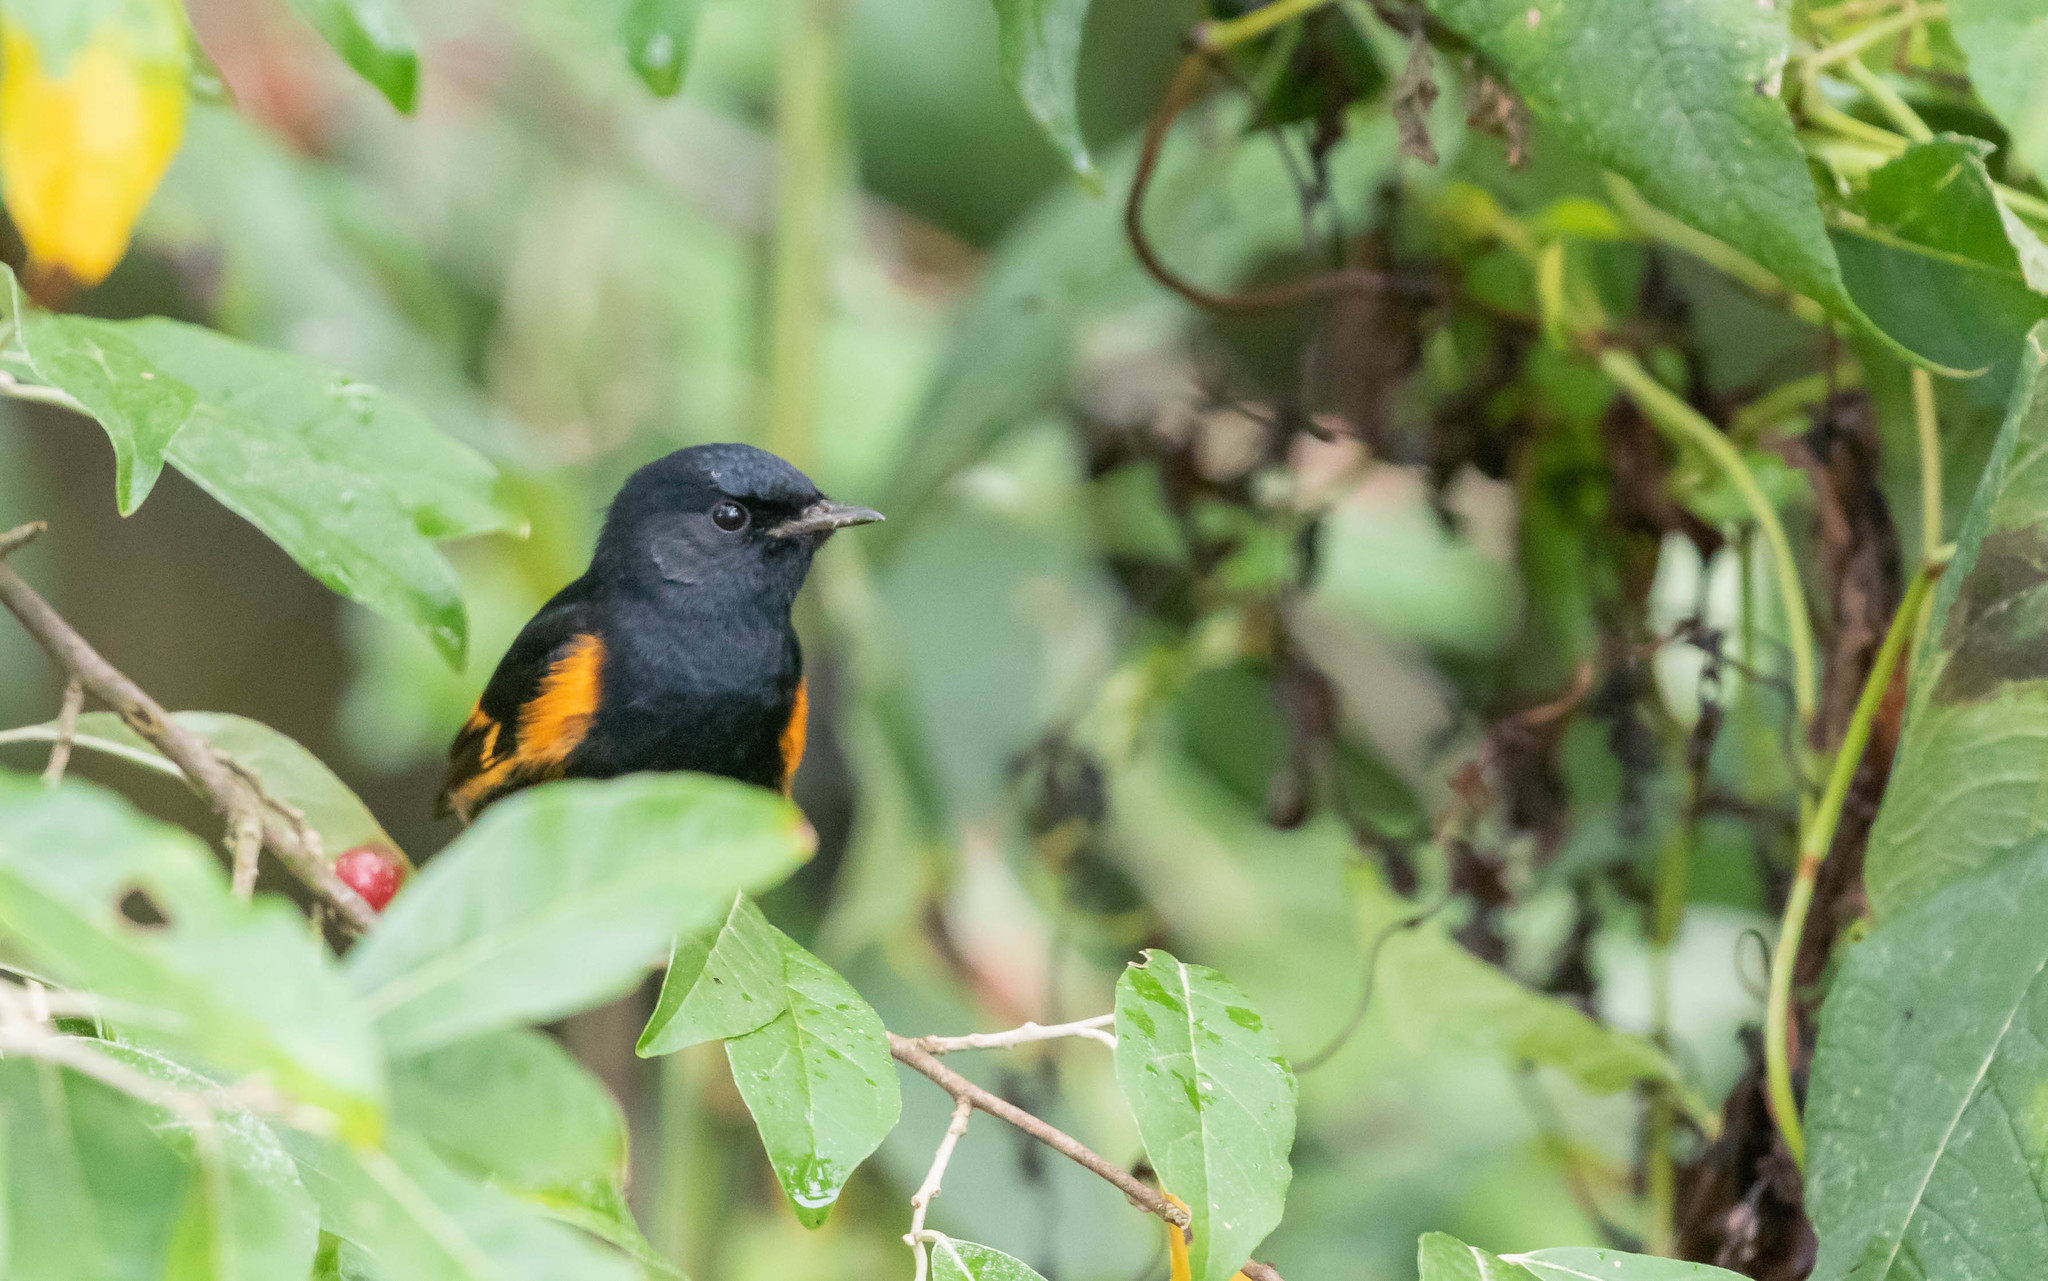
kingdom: Animalia
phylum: Chordata
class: Aves
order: Passeriformes
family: Parulidae
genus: Setophaga
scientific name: Setophaga ruticilla
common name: American redstart
